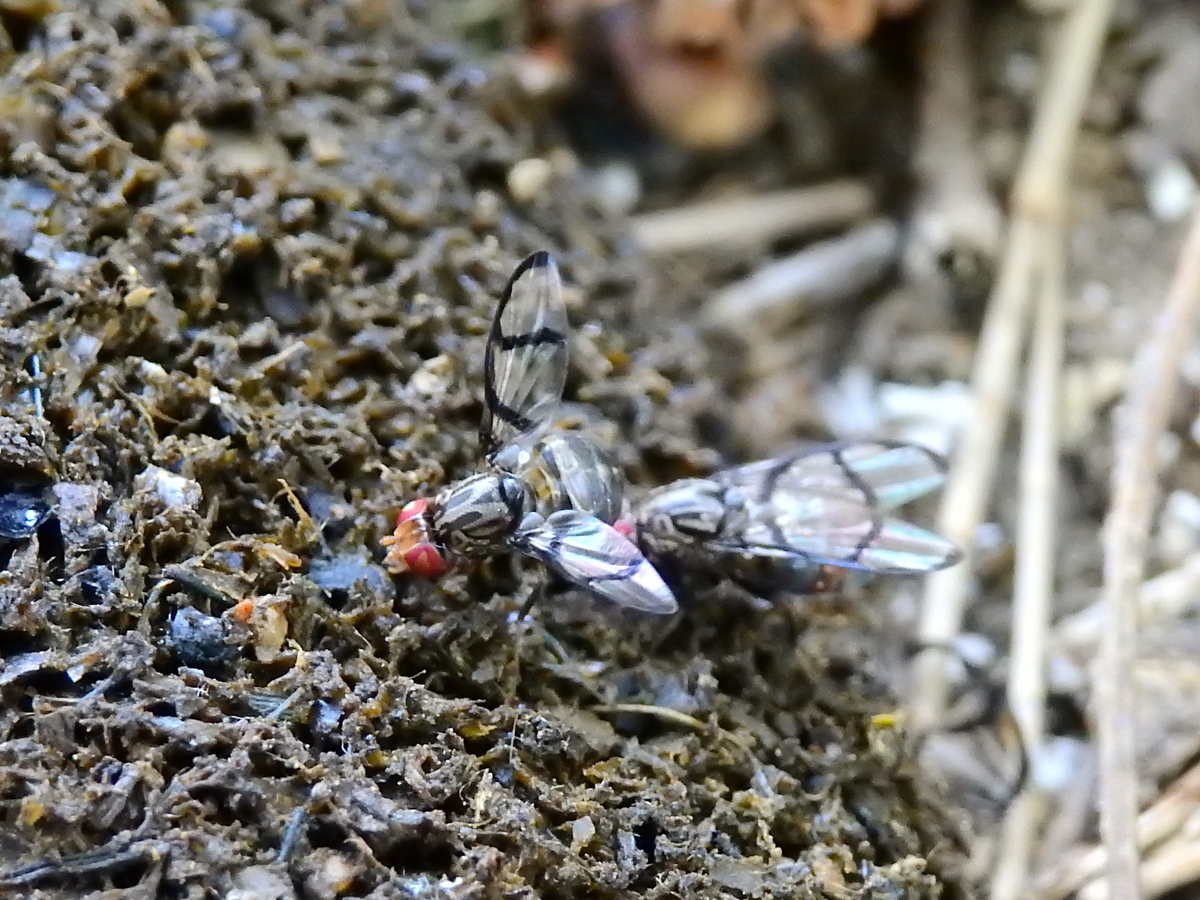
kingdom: Animalia
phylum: Arthropoda
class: Insecta
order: Diptera
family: Ulidiidae
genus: Neomyennis
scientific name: Neomyennis appendiculata
